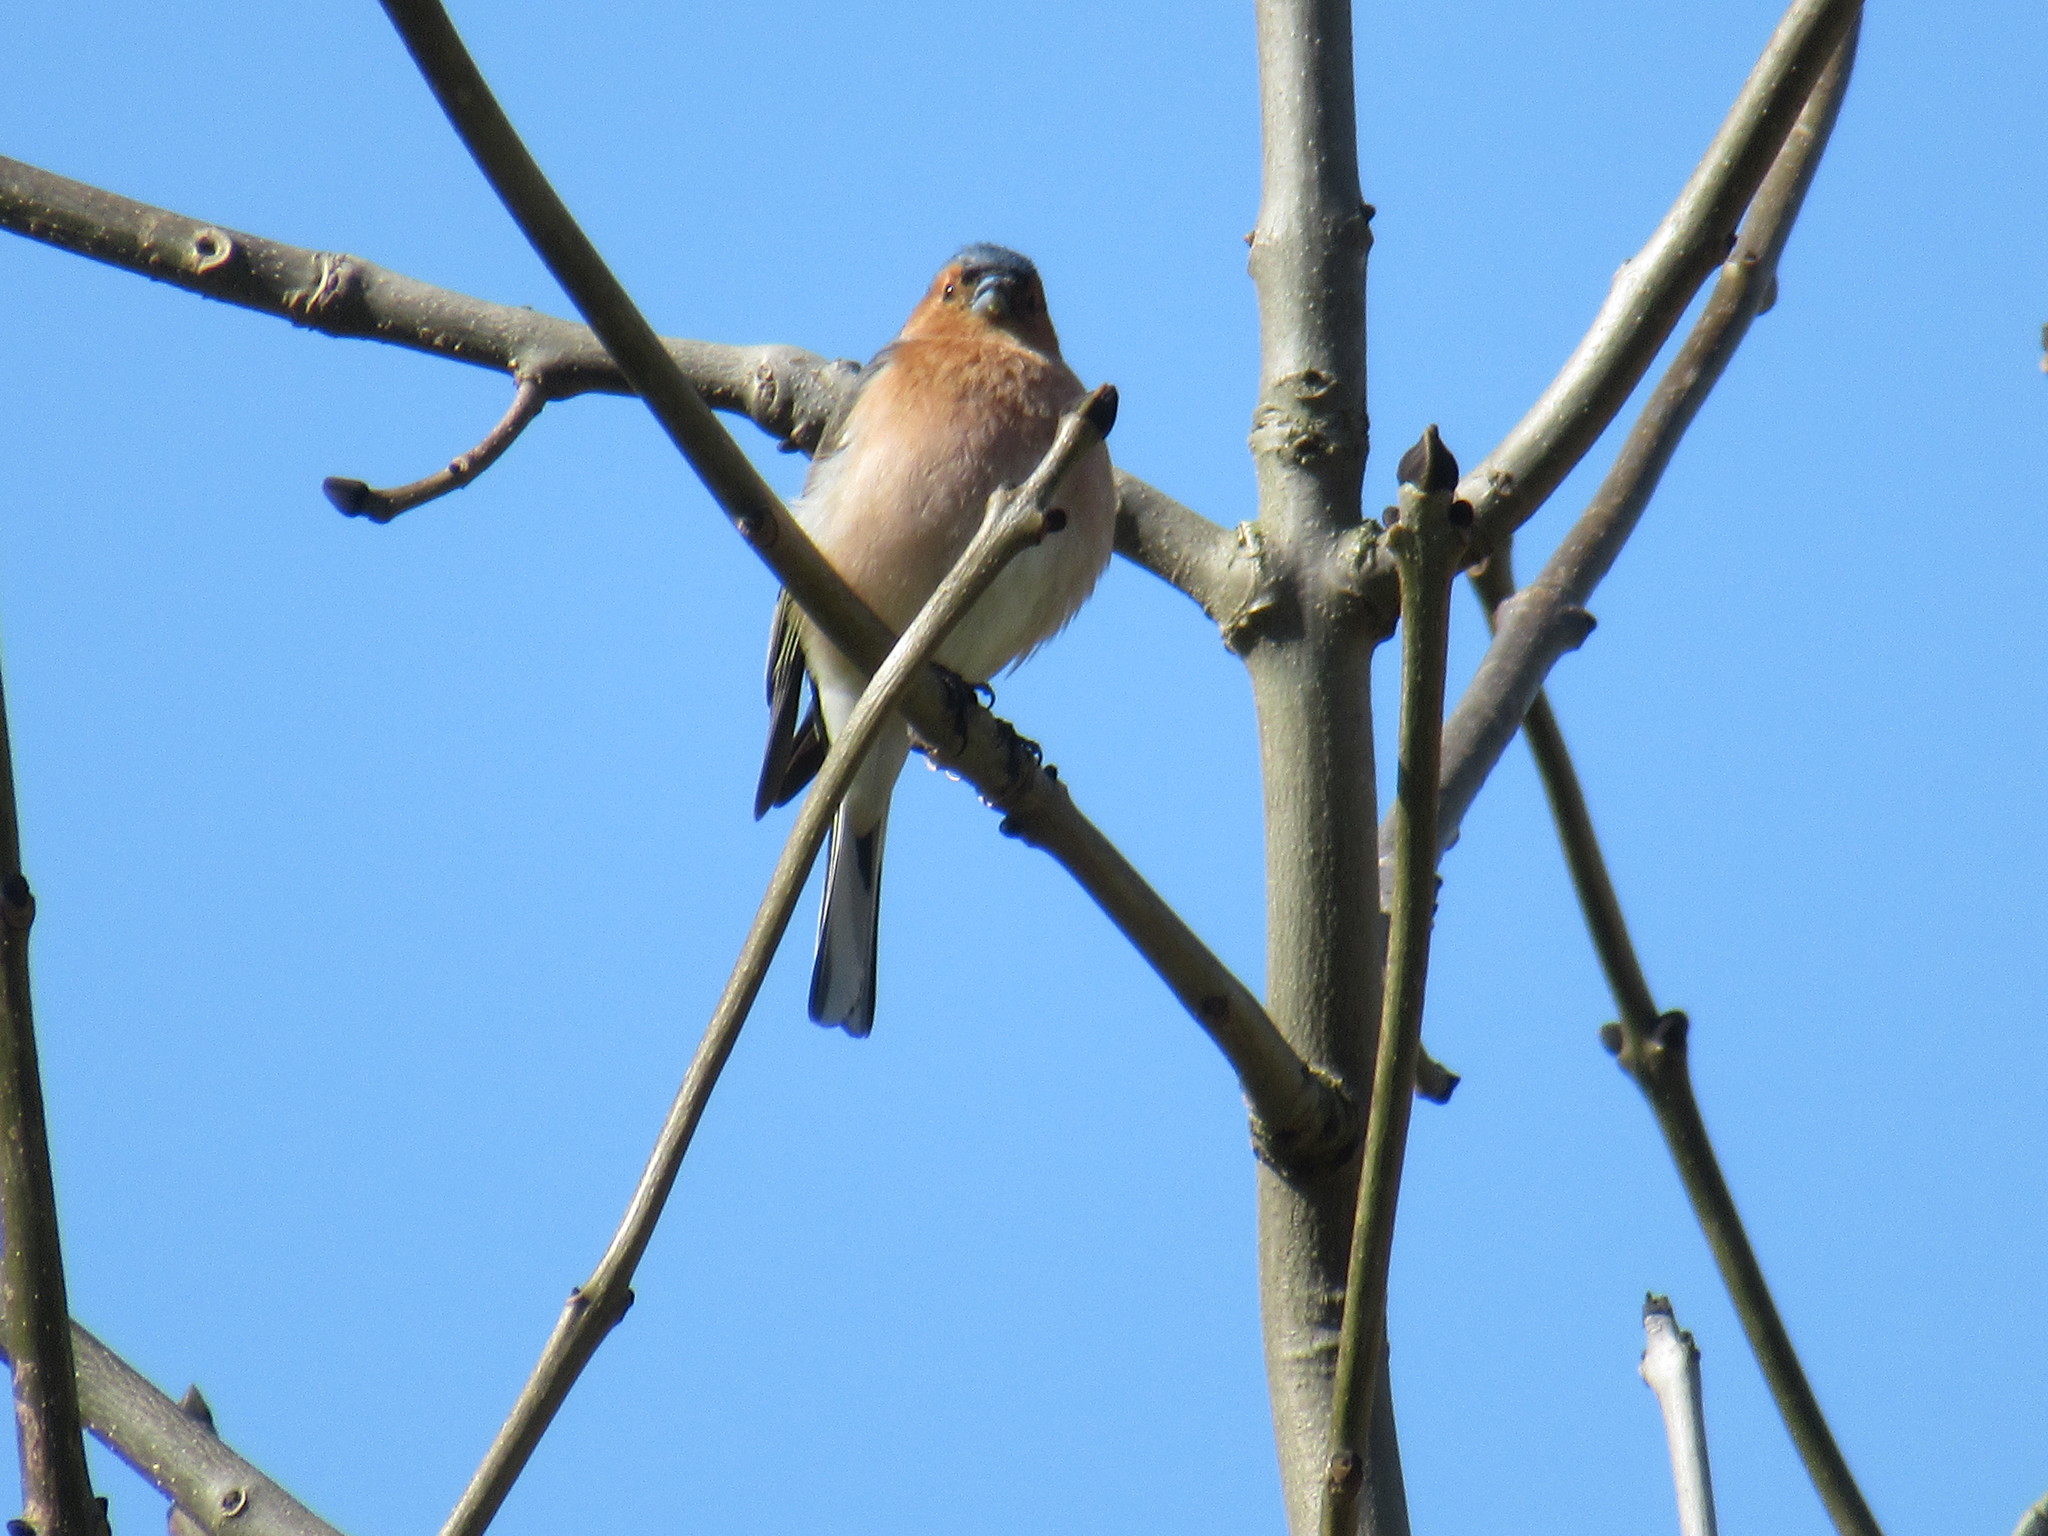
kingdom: Animalia
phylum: Chordata
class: Aves
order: Passeriformes
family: Fringillidae
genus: Fringilla
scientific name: Fringilla coelebs
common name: Common chaffinch
